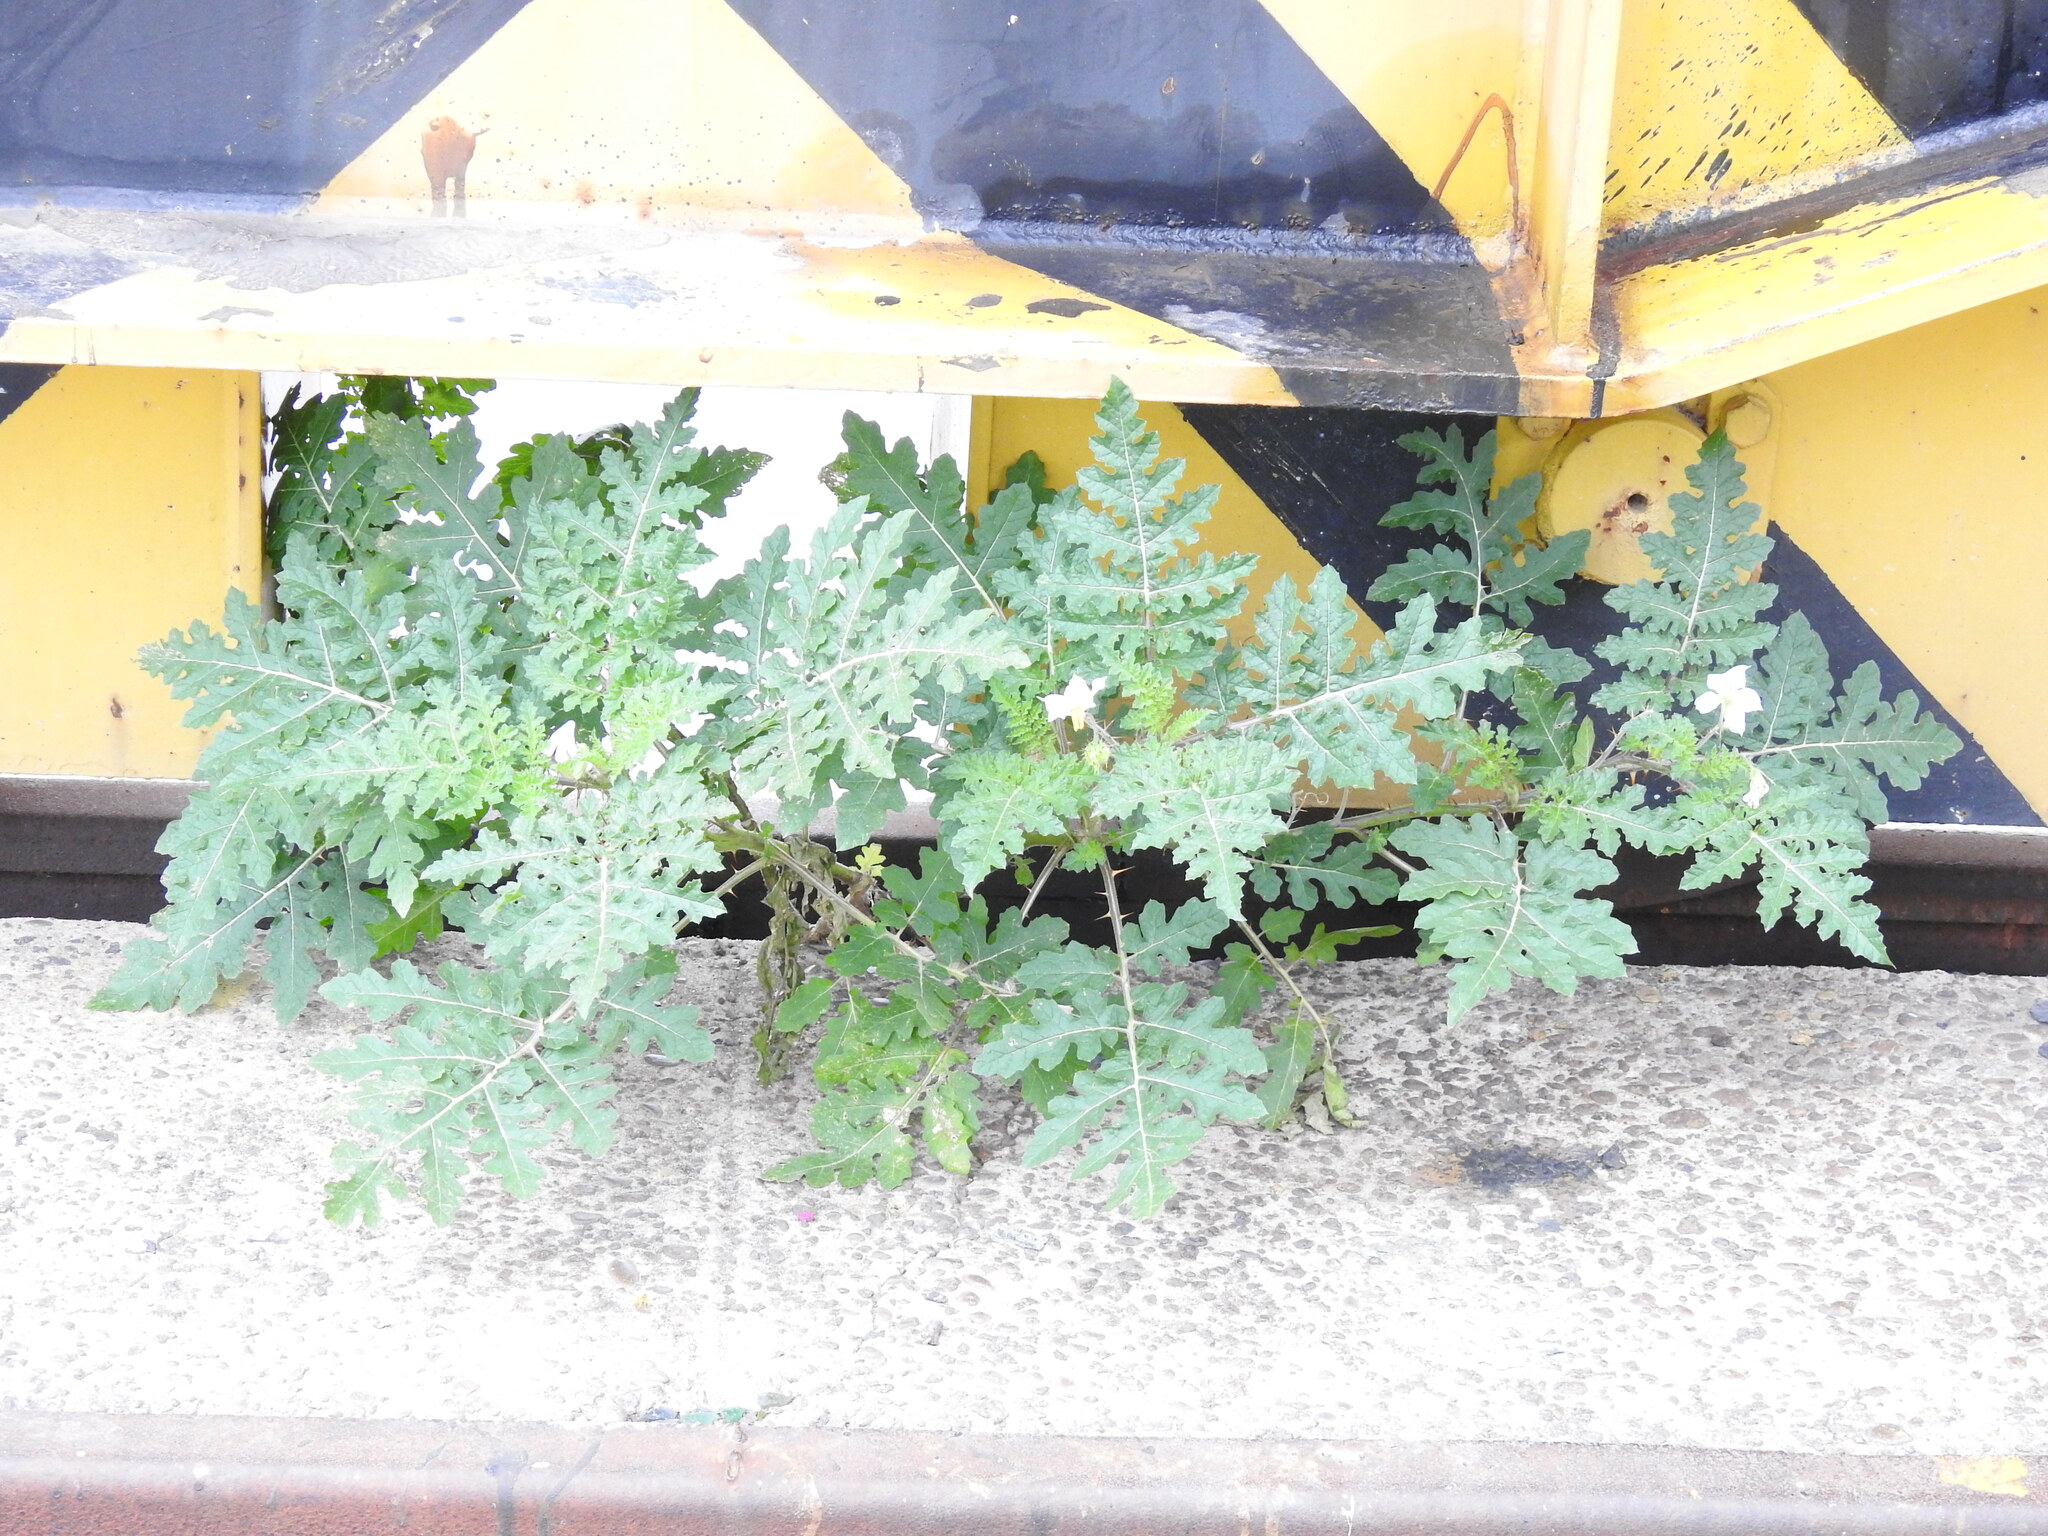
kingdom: Plantae
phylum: Tracheophyta
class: Magnoliopsida
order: Solanales
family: Solanaceae
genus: Solanum
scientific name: Solanum sisymbriifolium
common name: Red buffalo-bur
